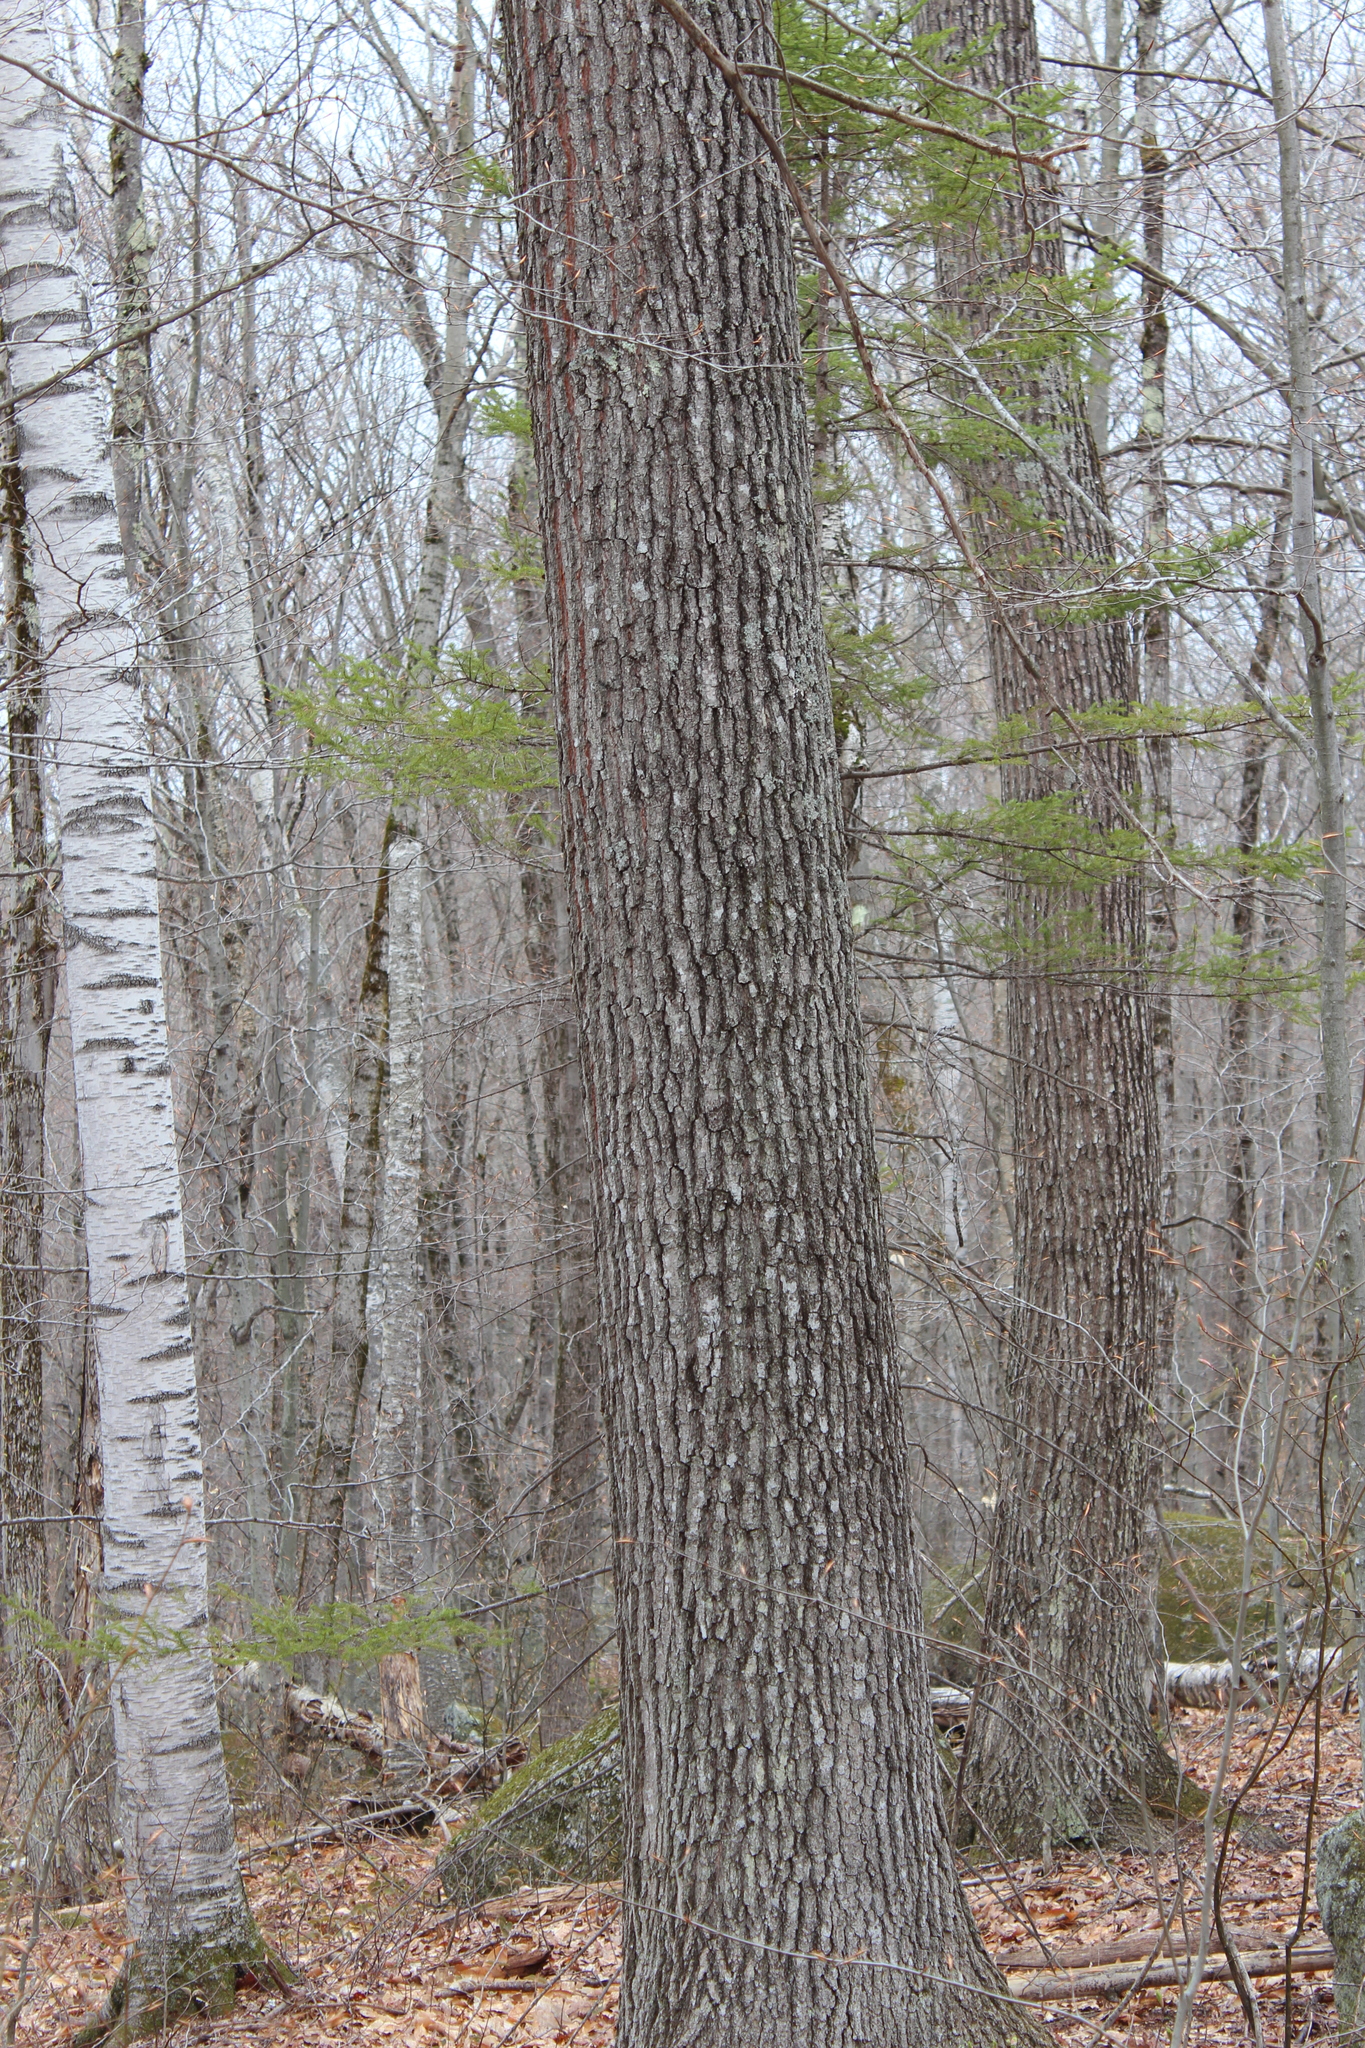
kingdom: Plantae
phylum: Tracheophyta
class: Magnoliopsida
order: Fagales
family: Fagaceae
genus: Quercus
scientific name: Quercus rubra
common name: Red oak
